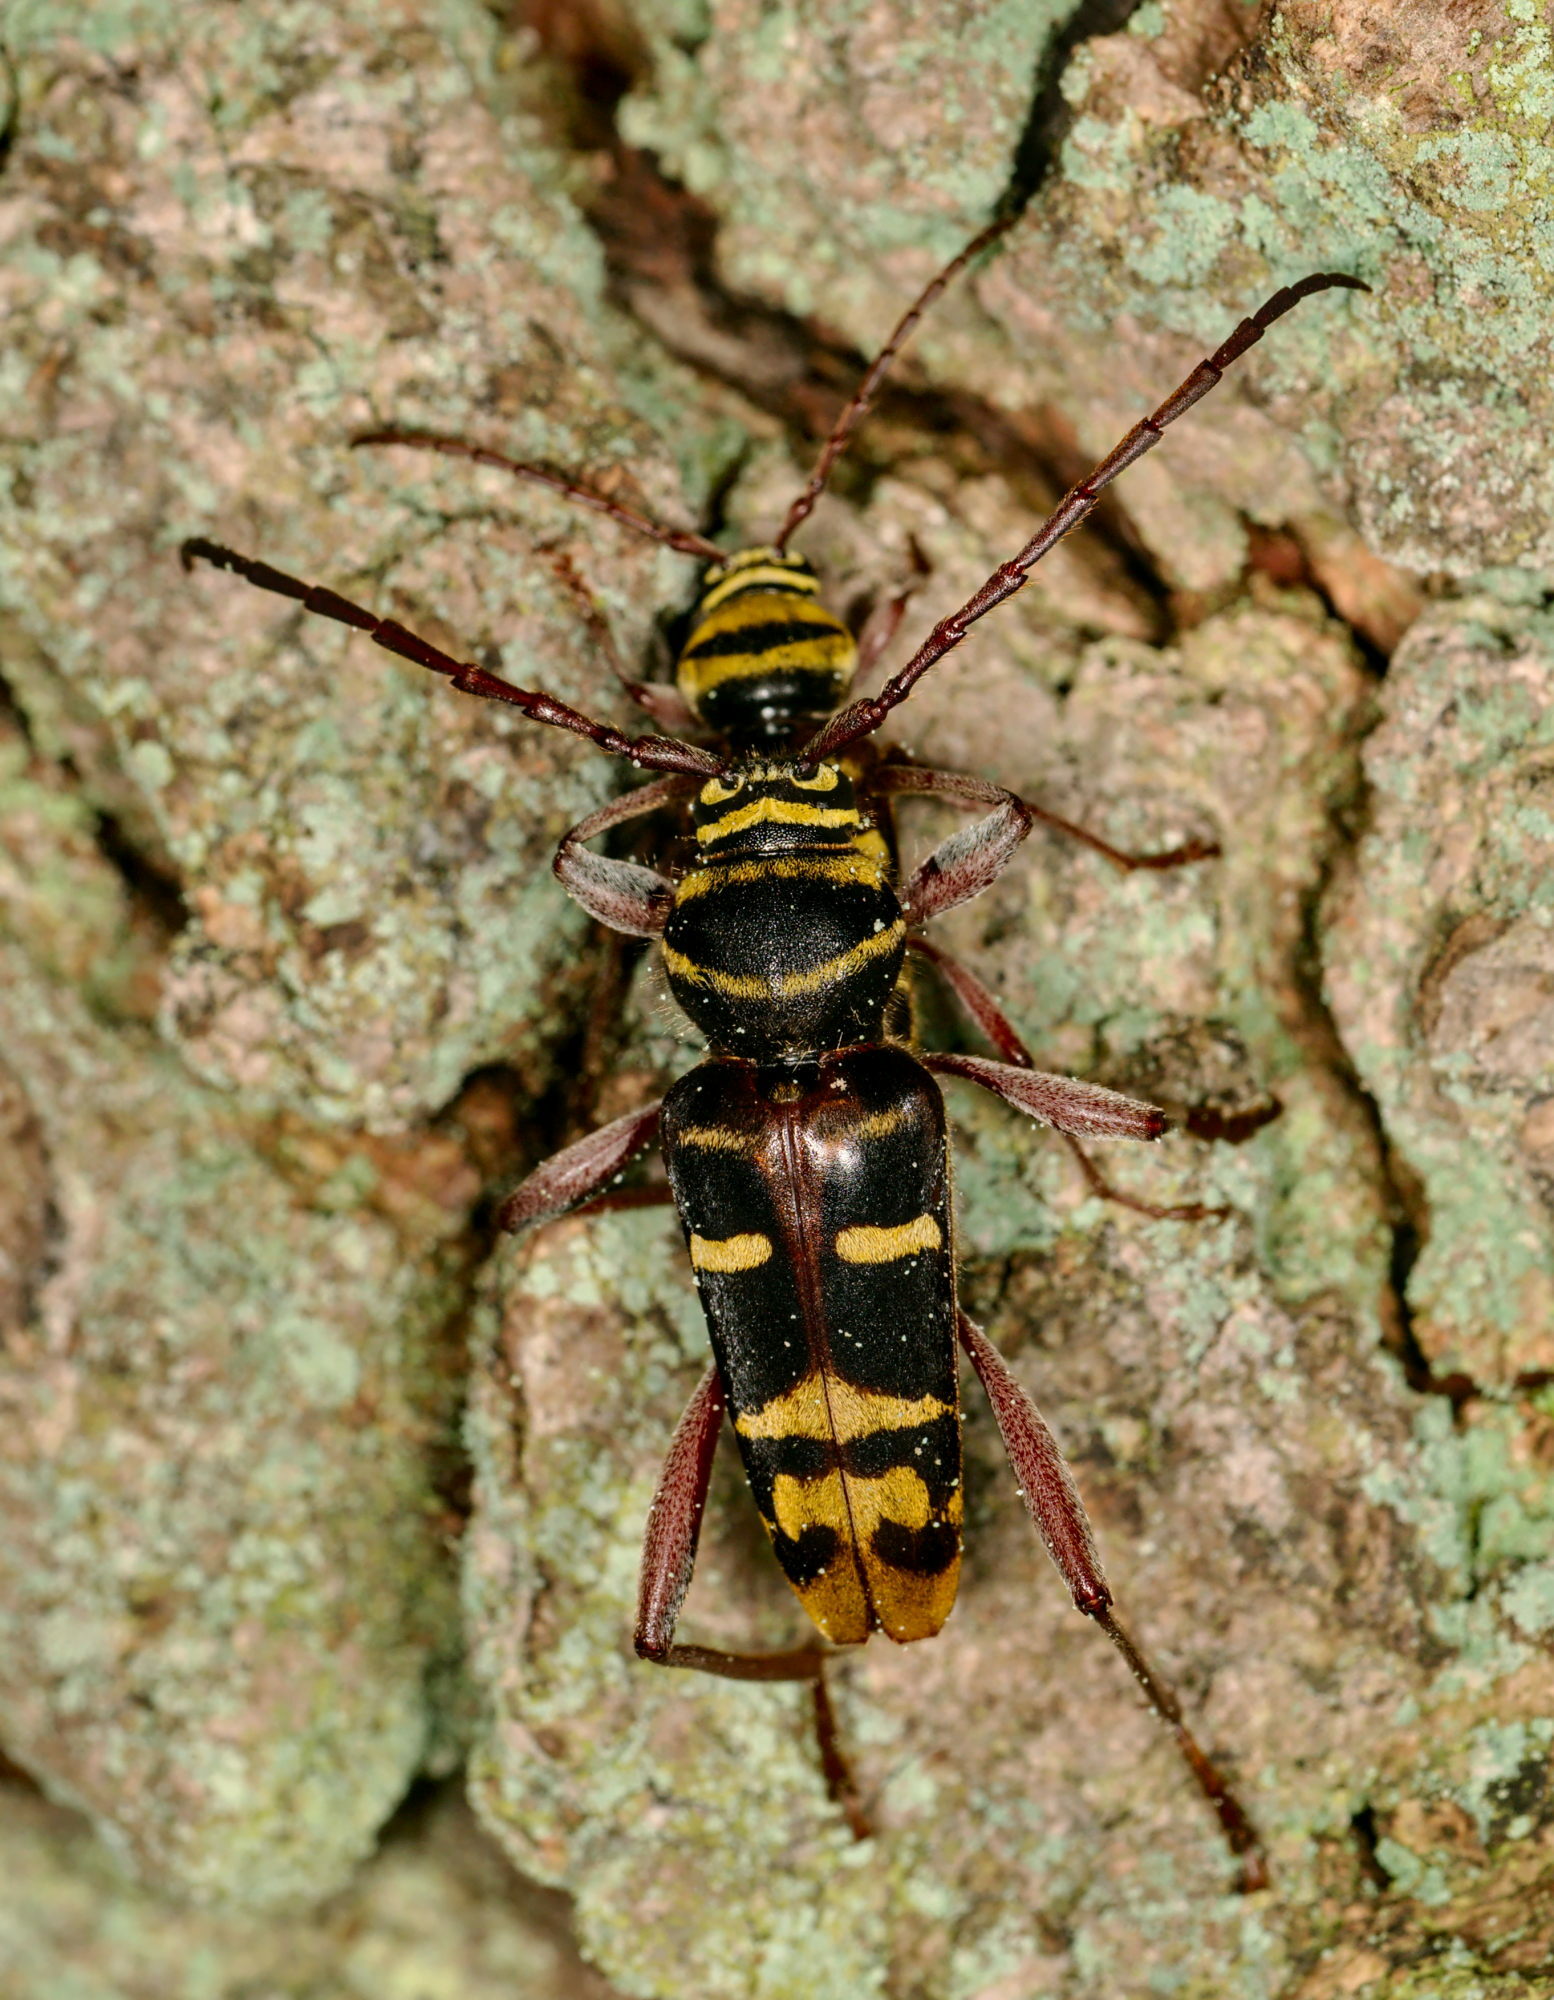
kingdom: Animalia
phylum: Arthropoda
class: Insecta
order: Coleoptera
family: Cerambycidae
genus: Plagionotus
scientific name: Plagionotus detritus
